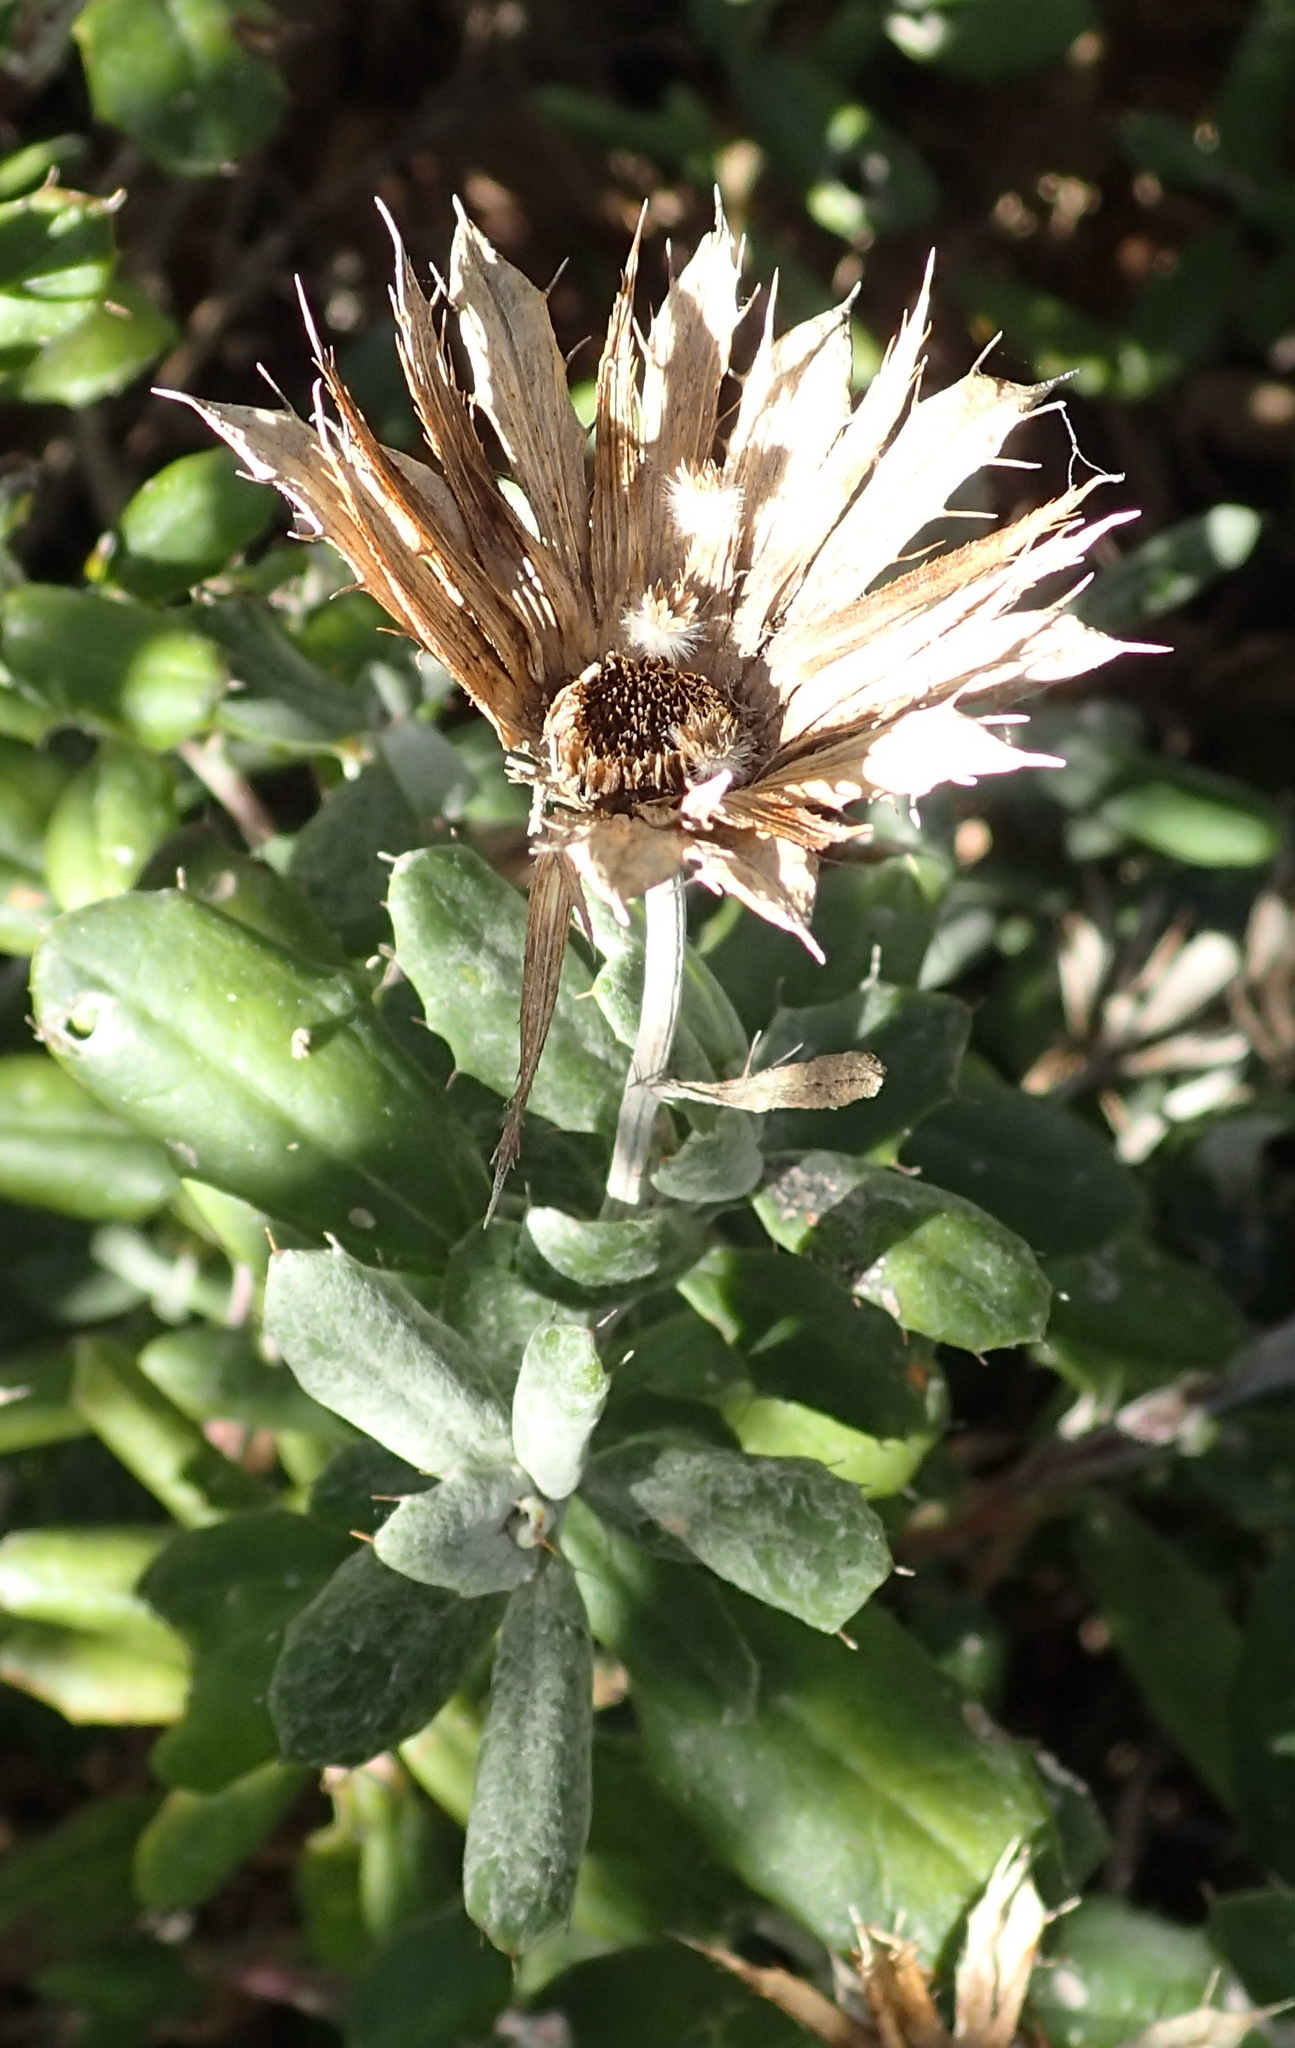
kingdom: Plantae
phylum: Tracheophyta
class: Magnoliopsida
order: Asterales
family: Asteraceae
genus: Berkheya
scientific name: Berkheya coriacea
